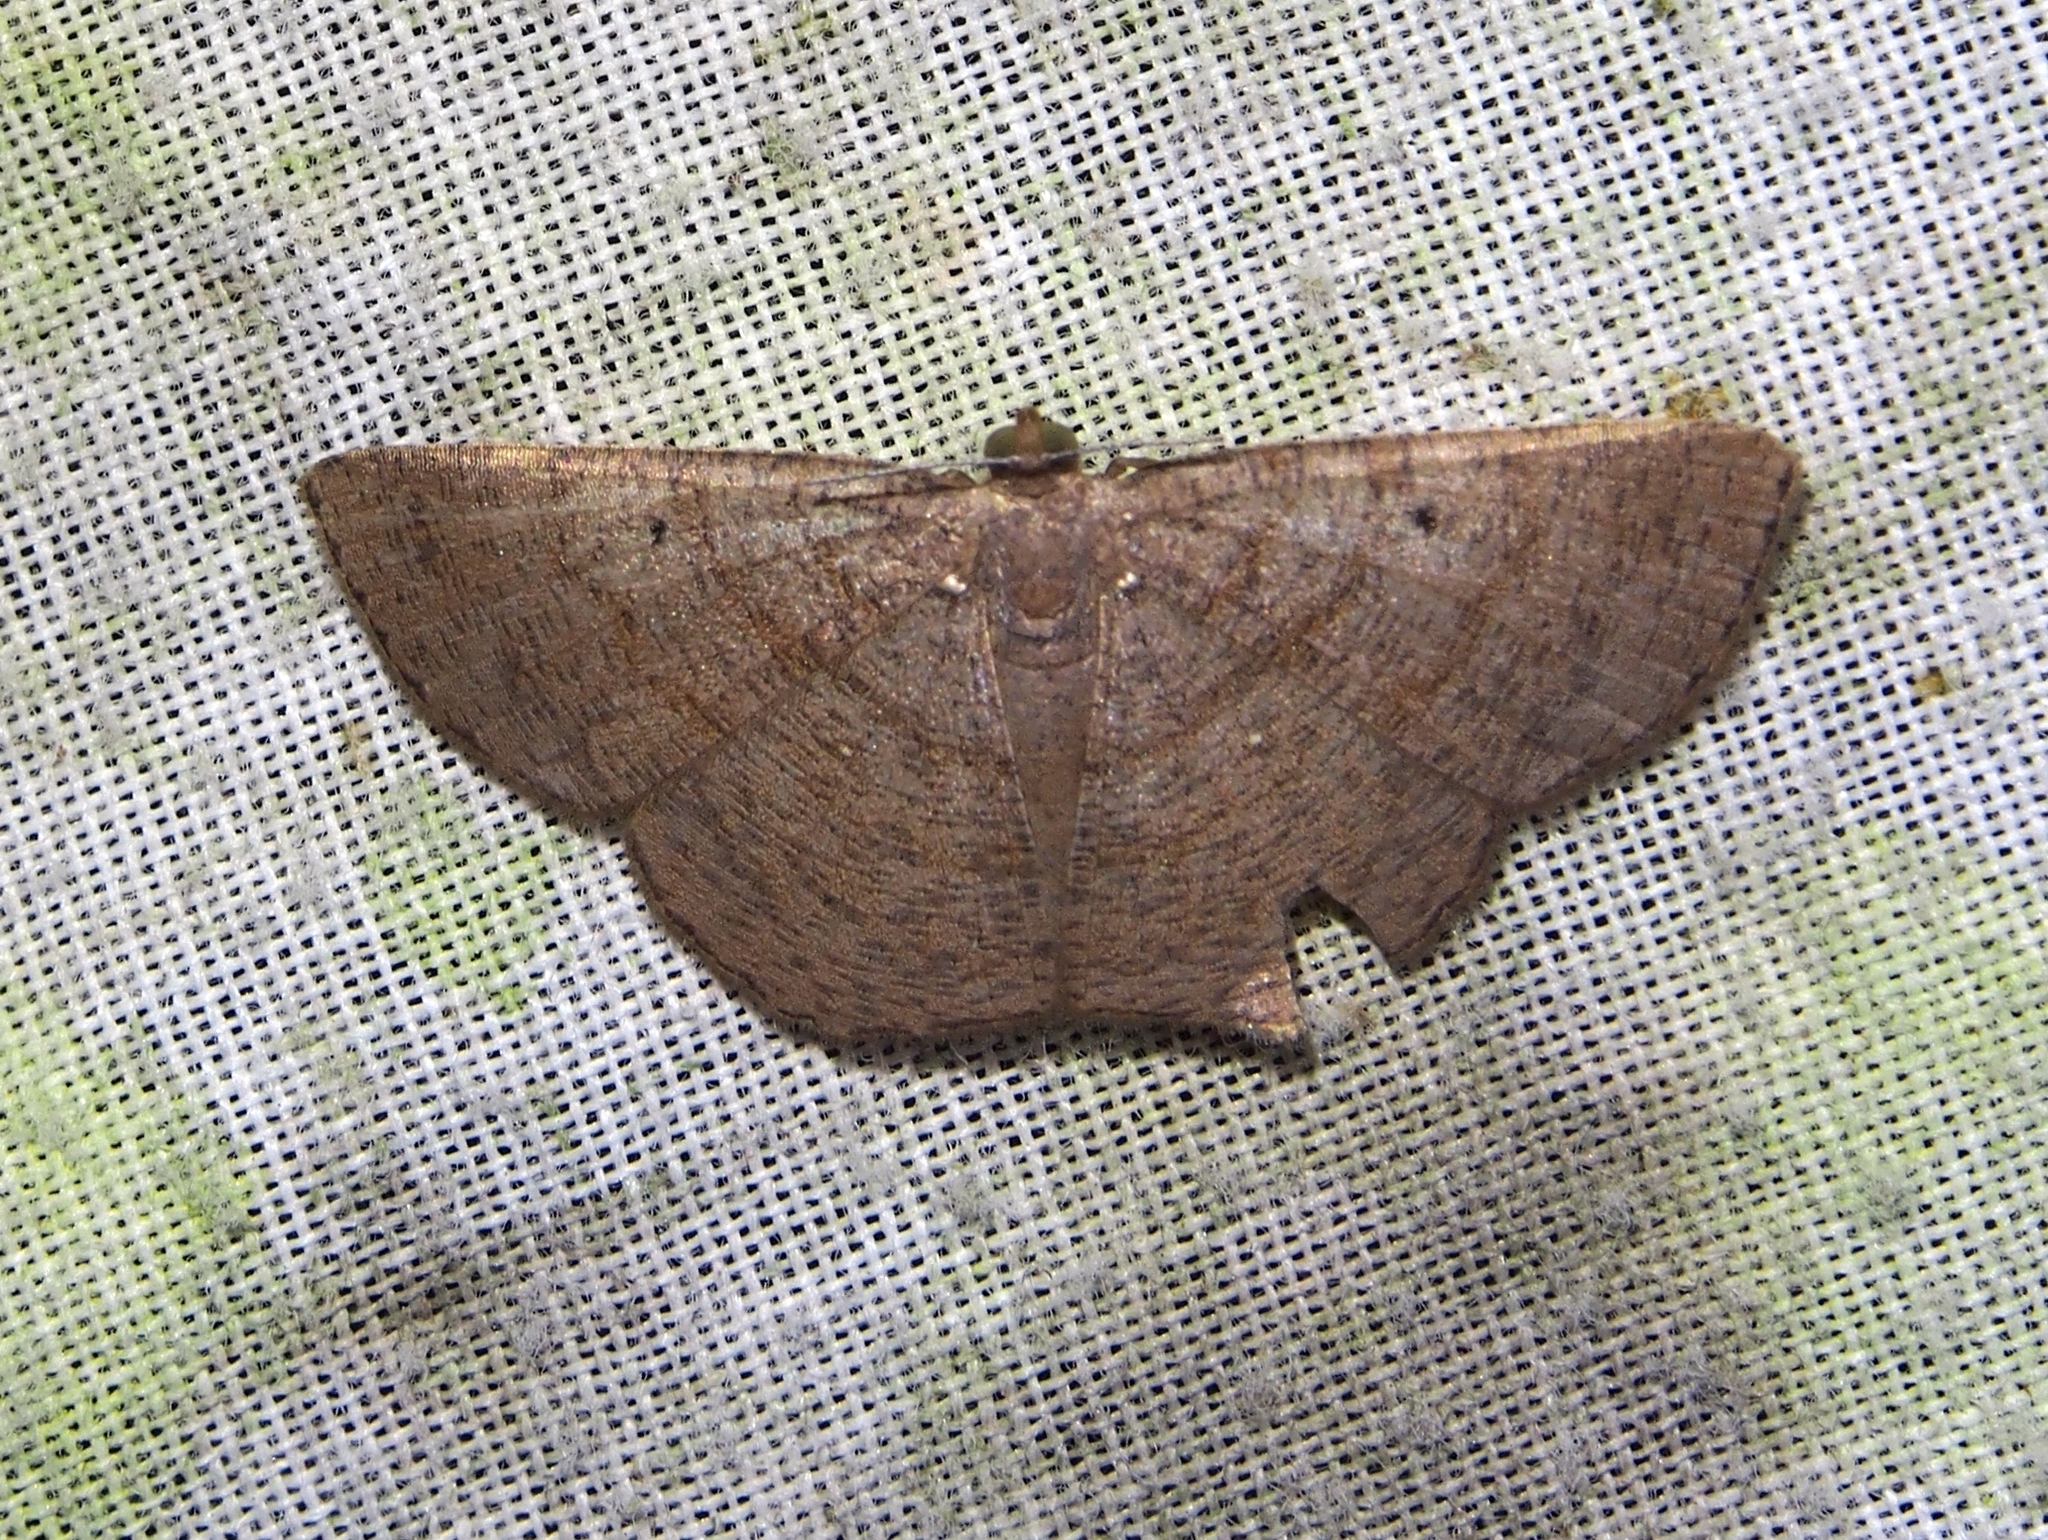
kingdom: Animalia
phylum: Arthropoda
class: Insecta
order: Lepidoptera
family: Geometridae
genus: Parilexia
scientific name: Parilexia nicetaria
